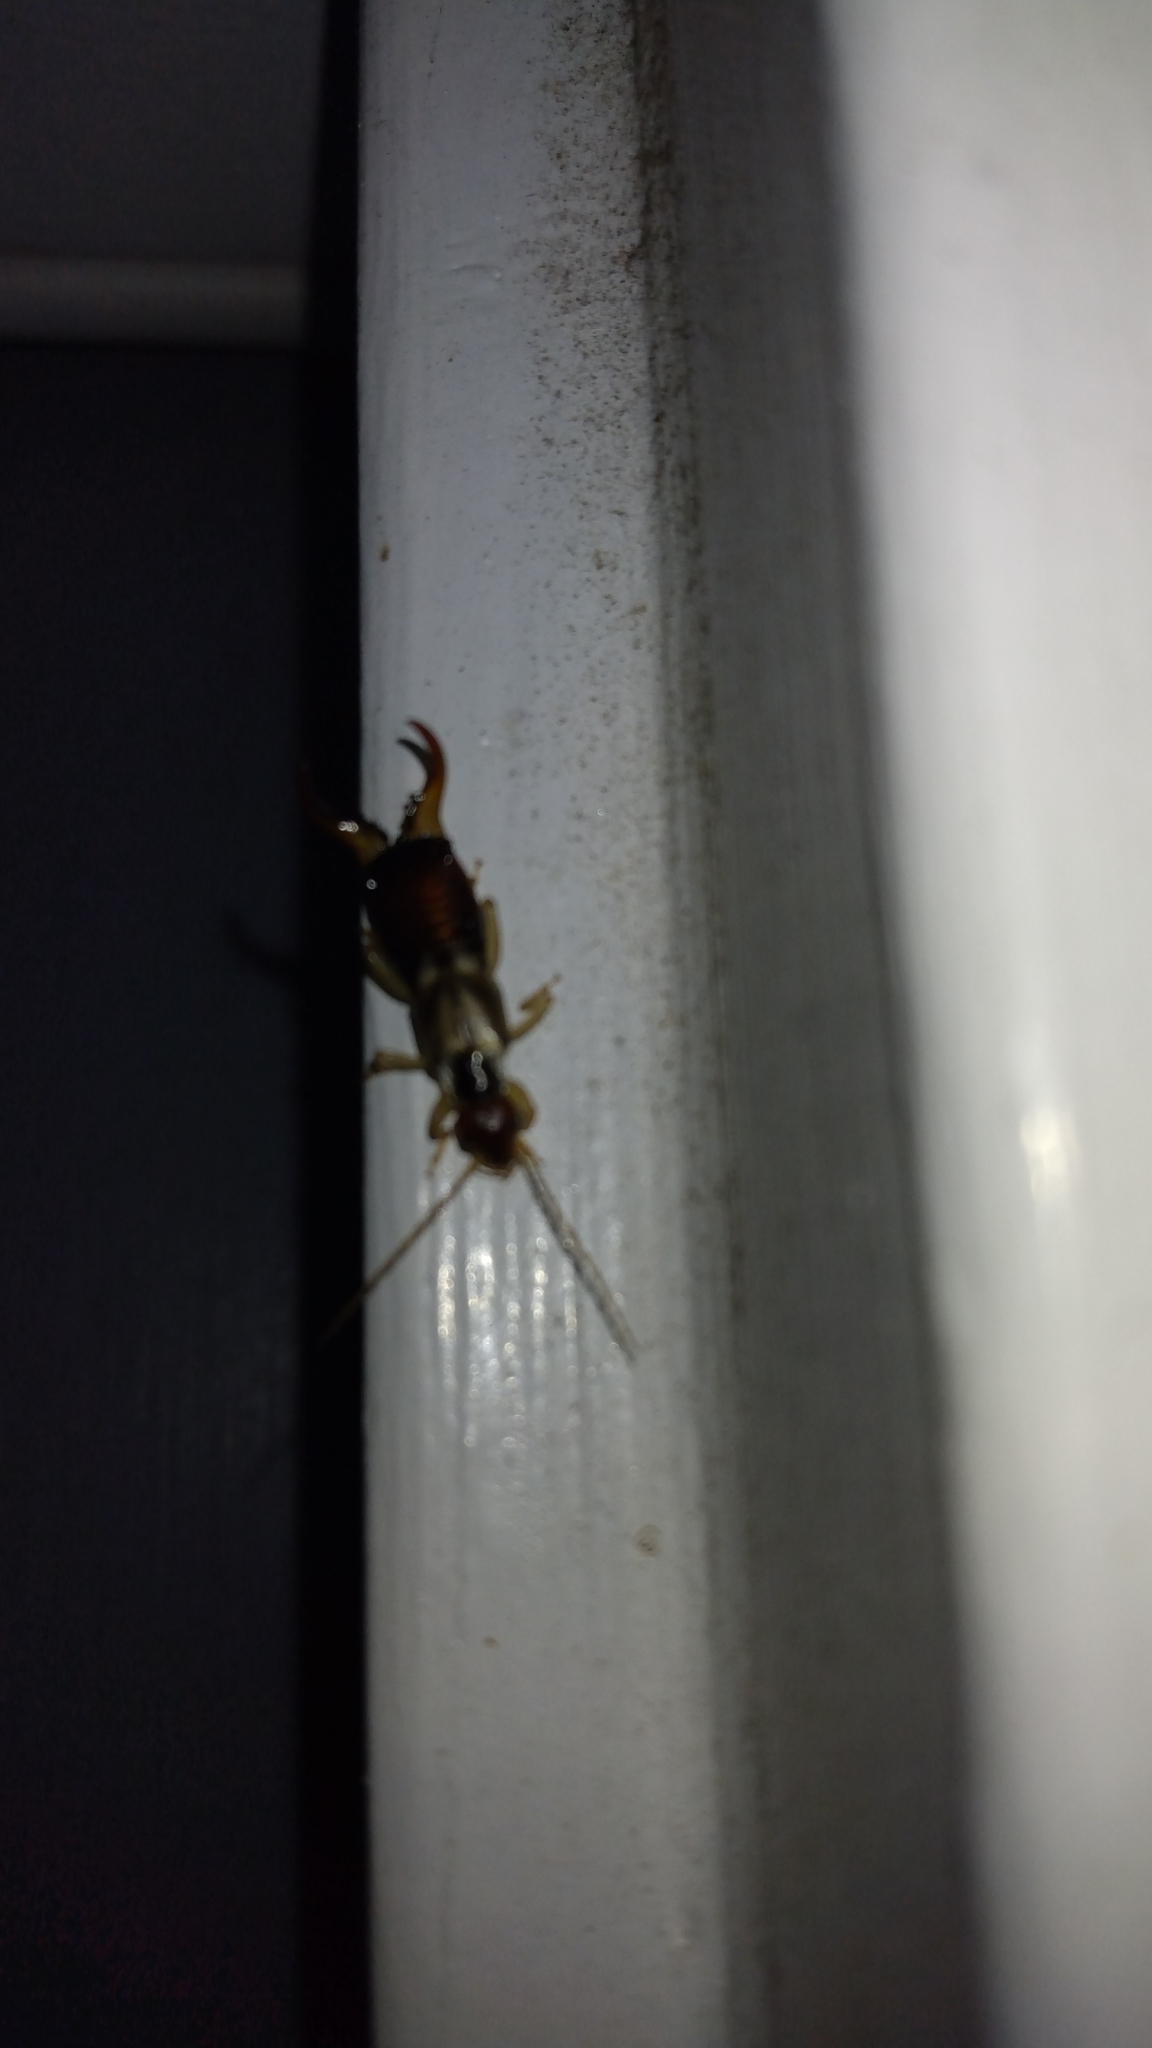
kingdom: Animalia
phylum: Arthropoda
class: Insecta
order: Dermaptera
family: Forficulidae
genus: Forficula
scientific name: Forficula
